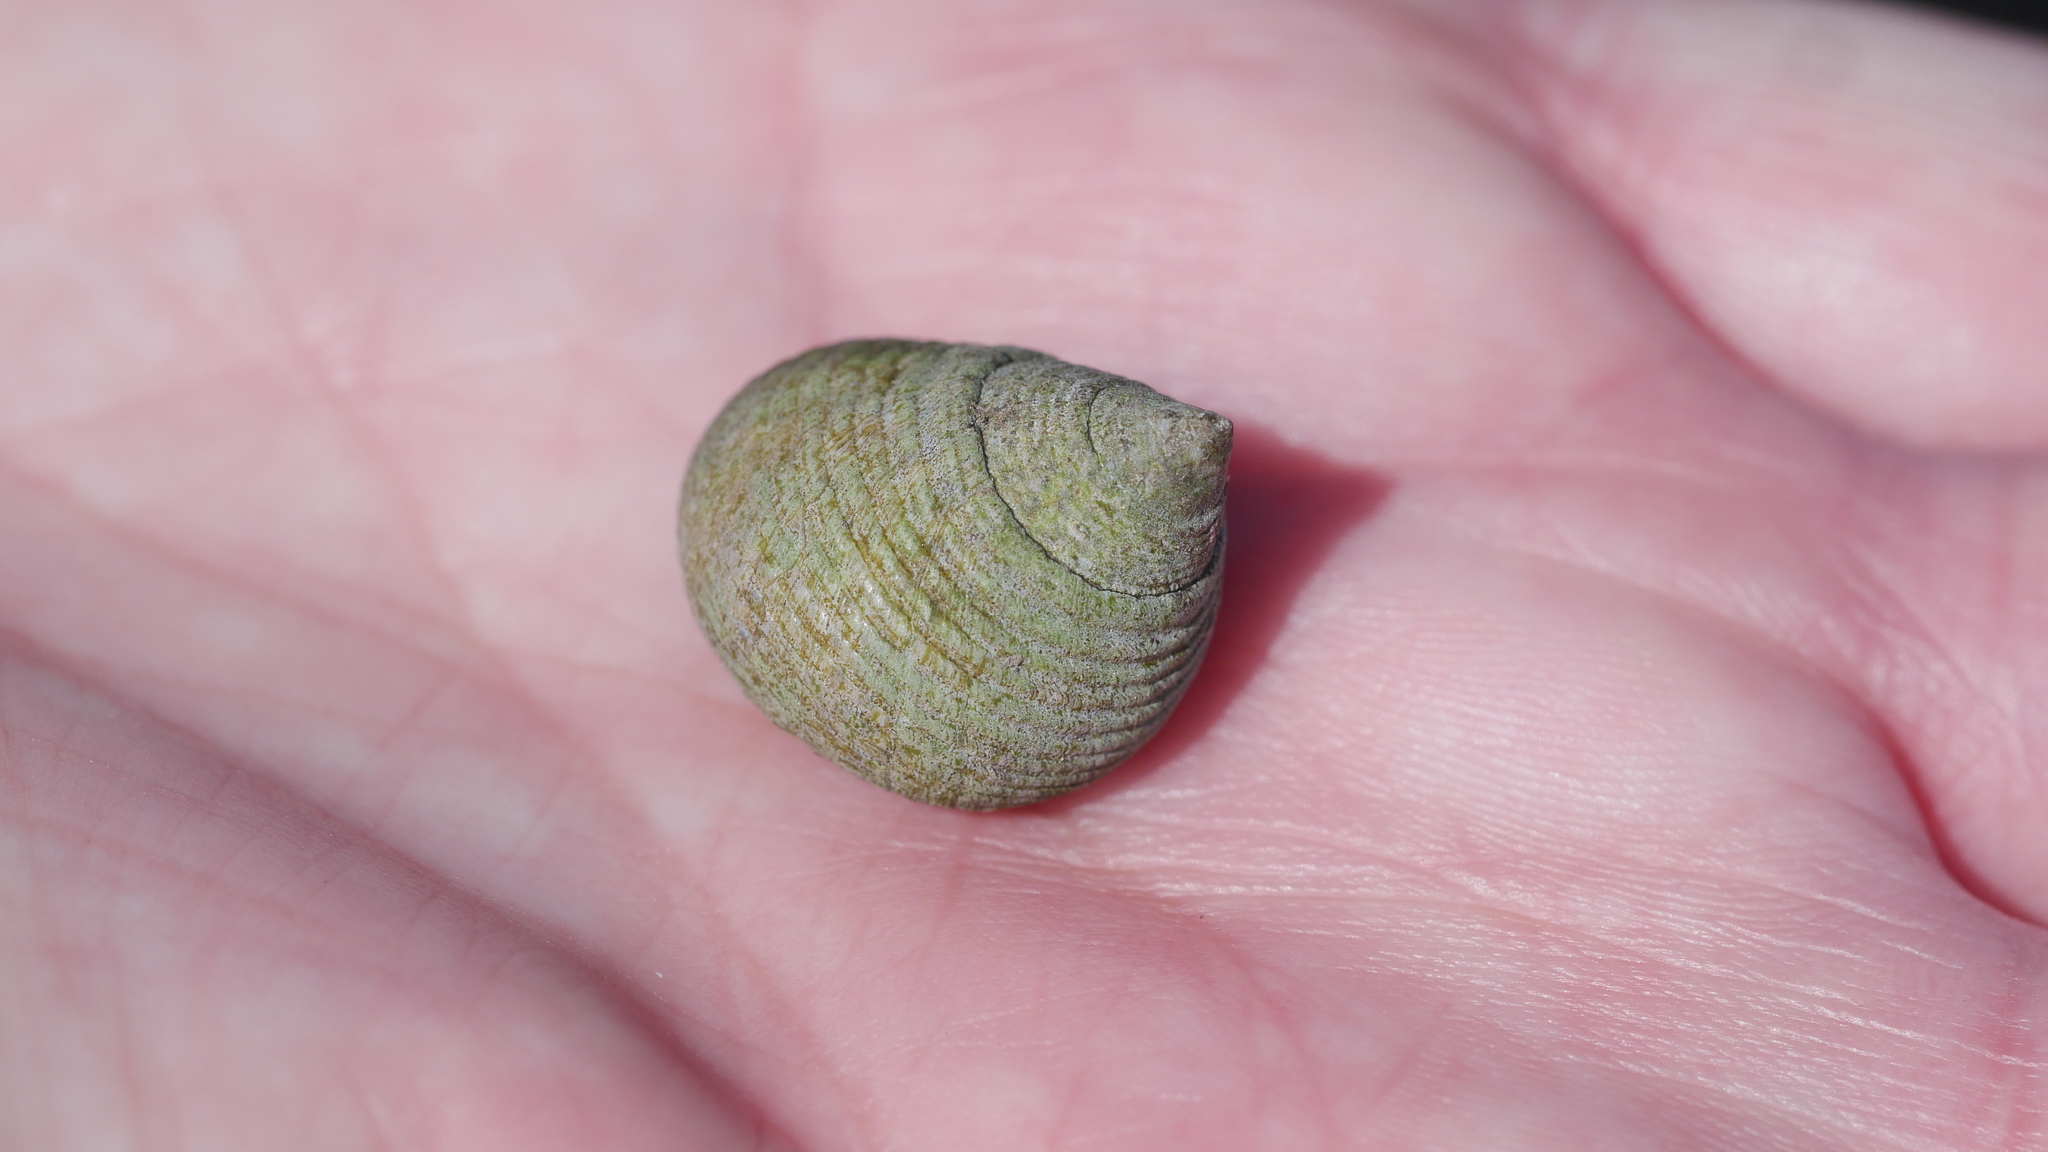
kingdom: Animalia
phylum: Mollusca
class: Gastropoda
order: Littorinimorpha
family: Littorinidae
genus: Littoraria
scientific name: Littoraria irrorata
